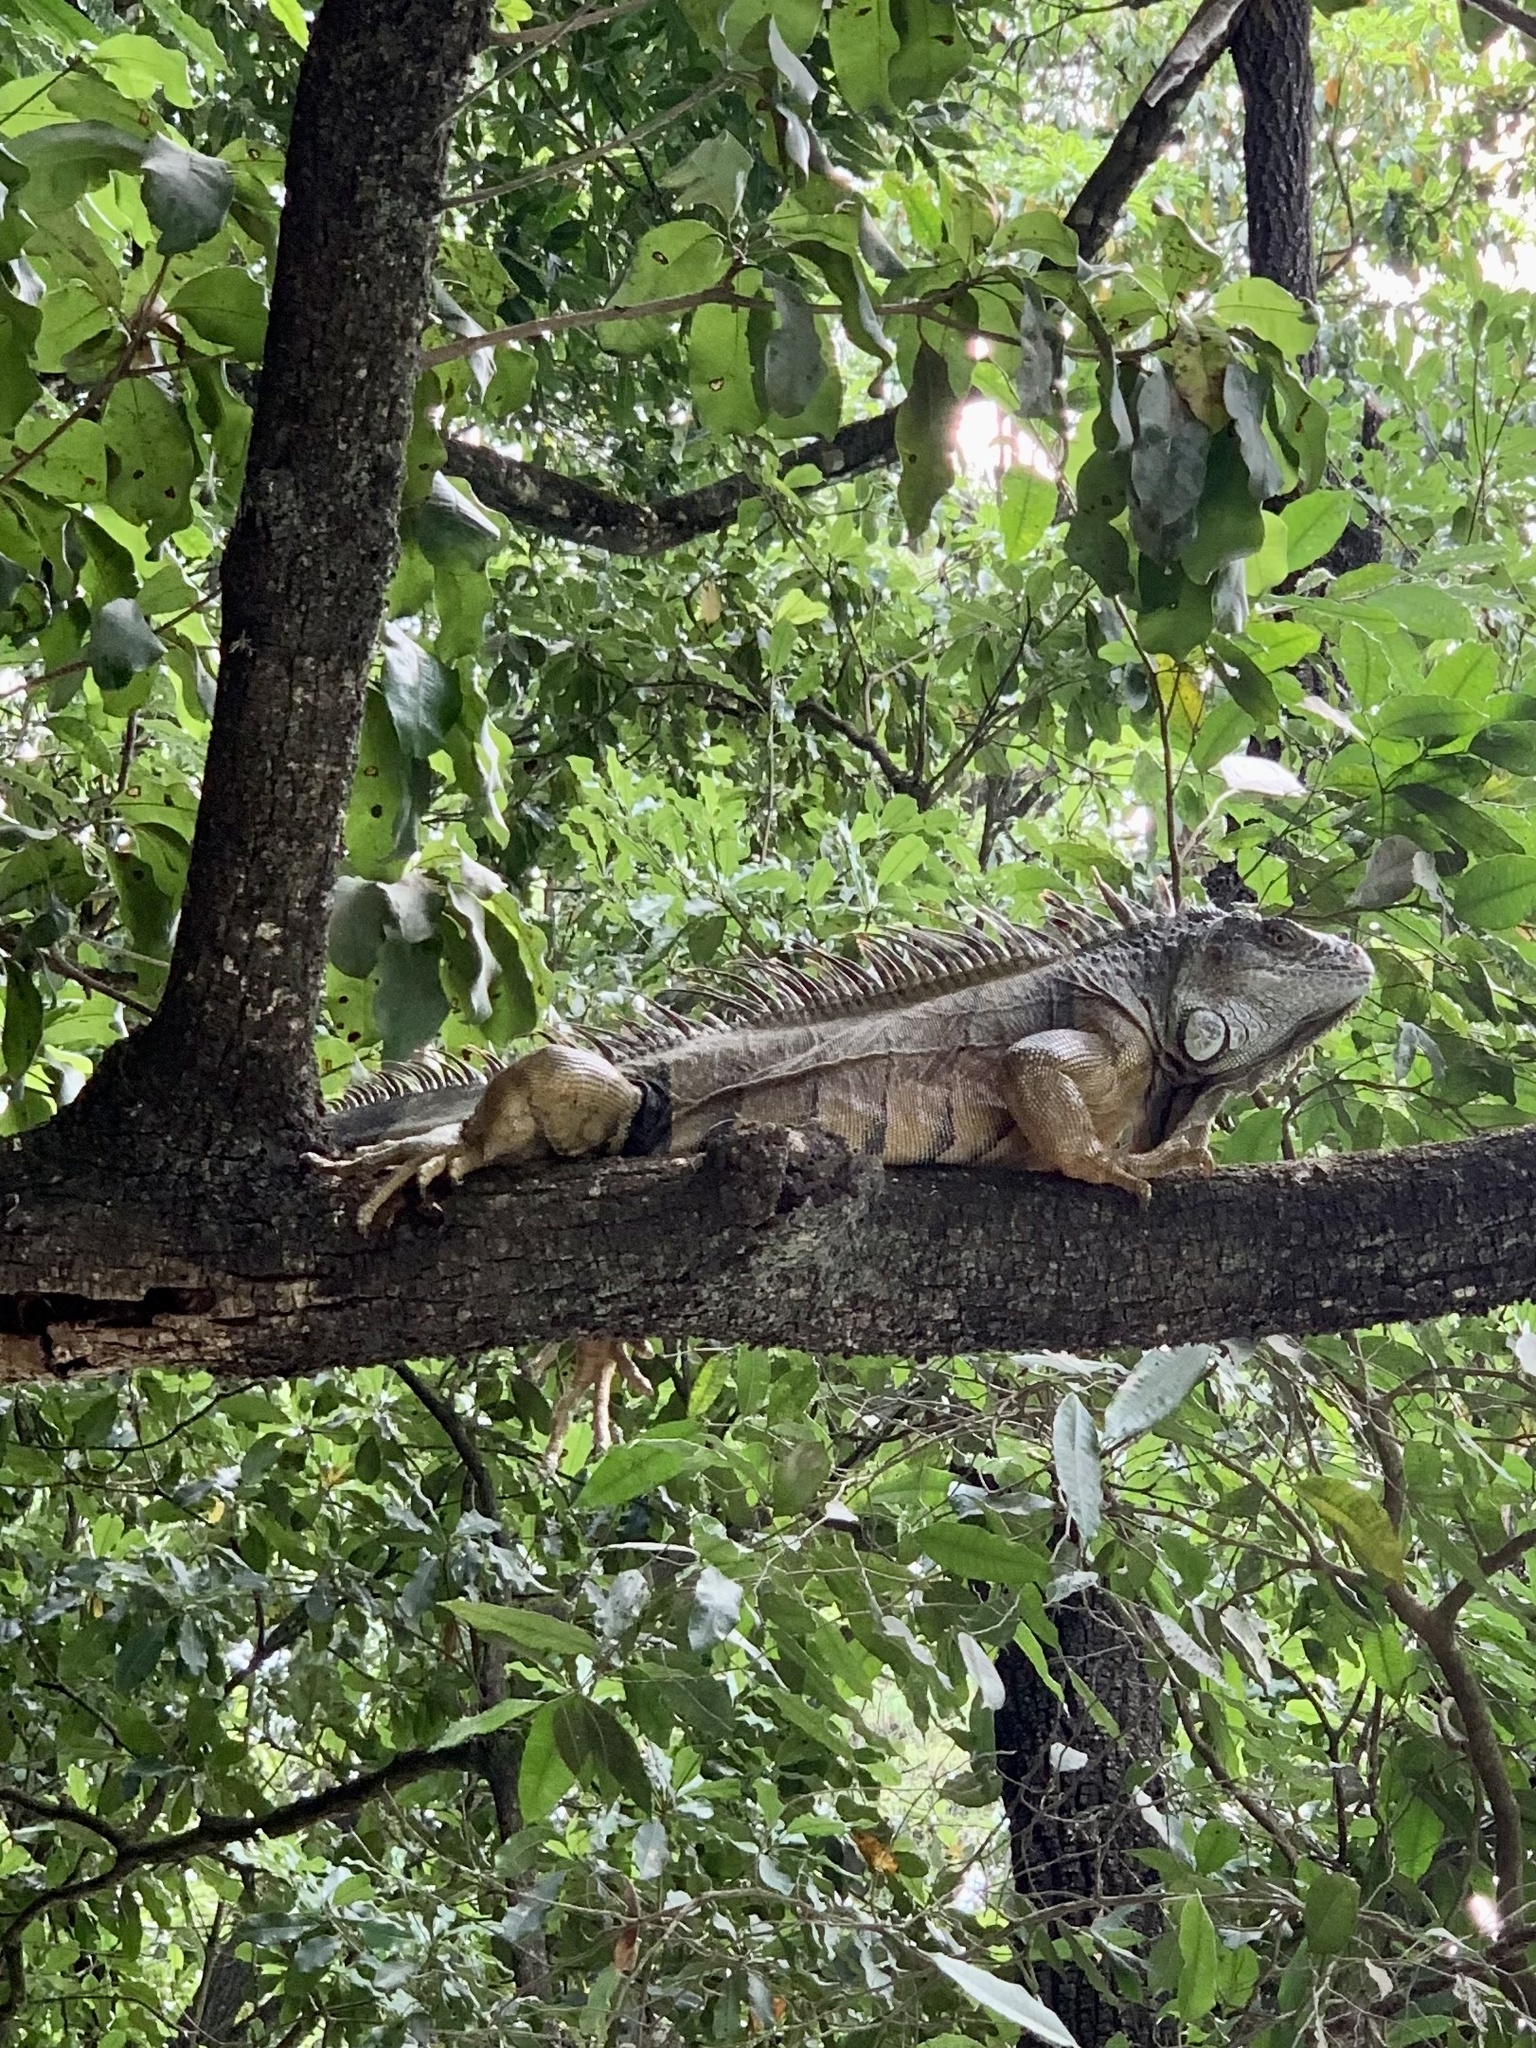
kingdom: Animalia
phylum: Chordata
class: Squamata
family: Iguanidae
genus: Iguana
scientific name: Iguana iguana
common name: Green iguana
